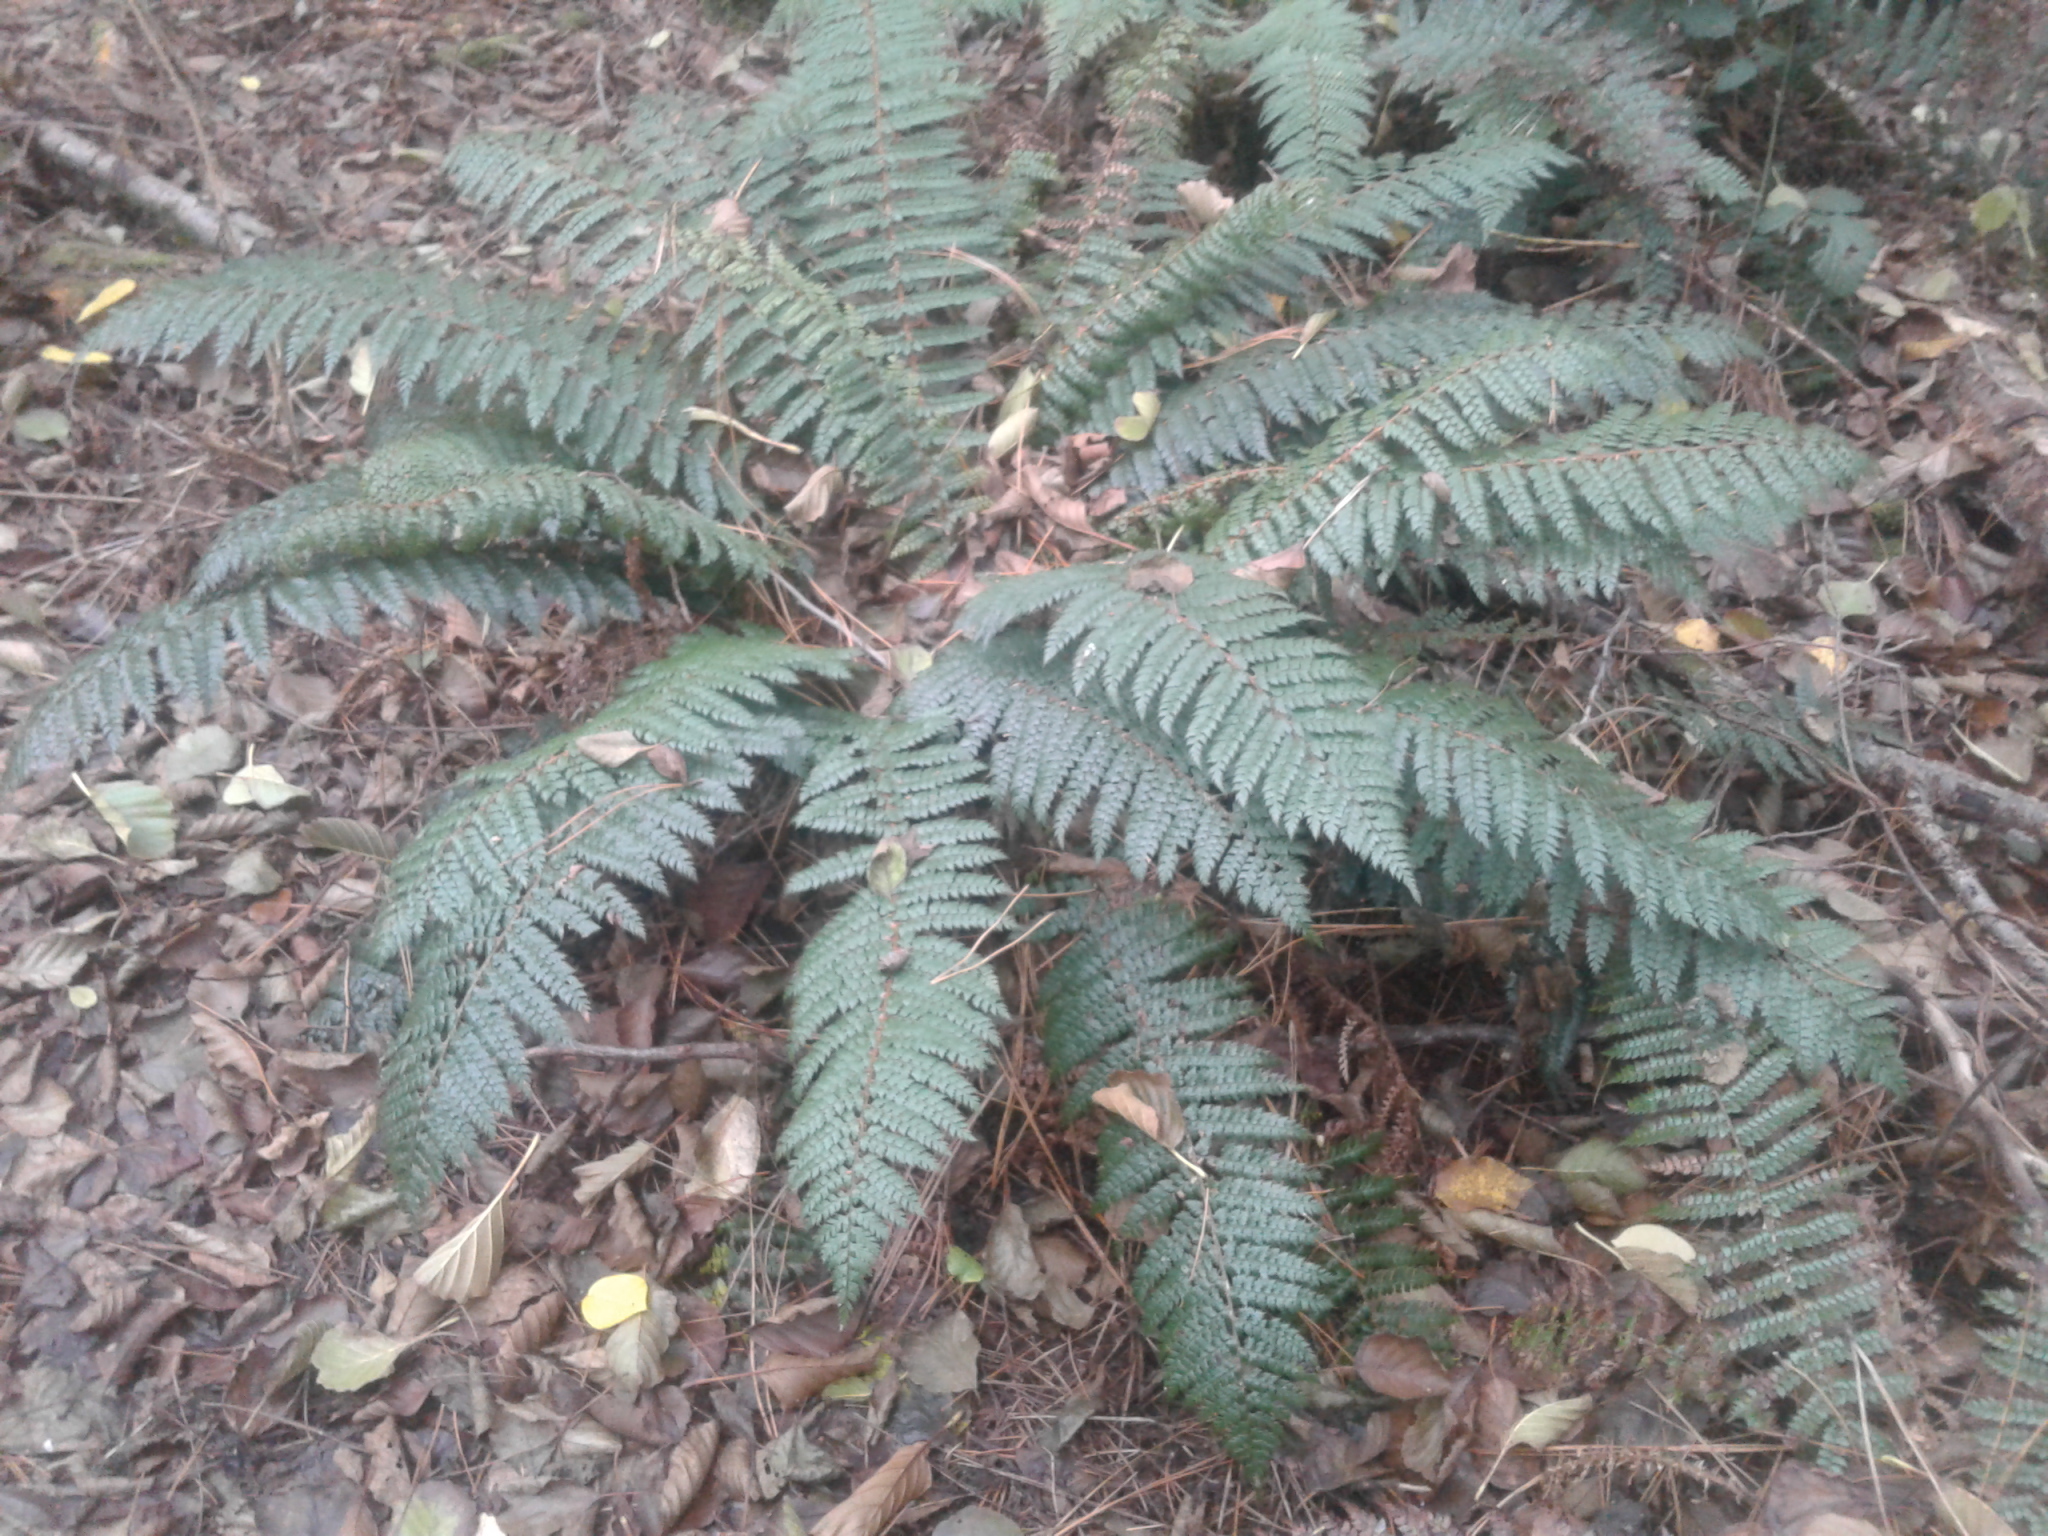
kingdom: Plantae
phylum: Tracheophyta
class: Polypodiopsida
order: Polypodiales
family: Dryopteridaceae
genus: Polystichum
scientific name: Polystichum vestitum
